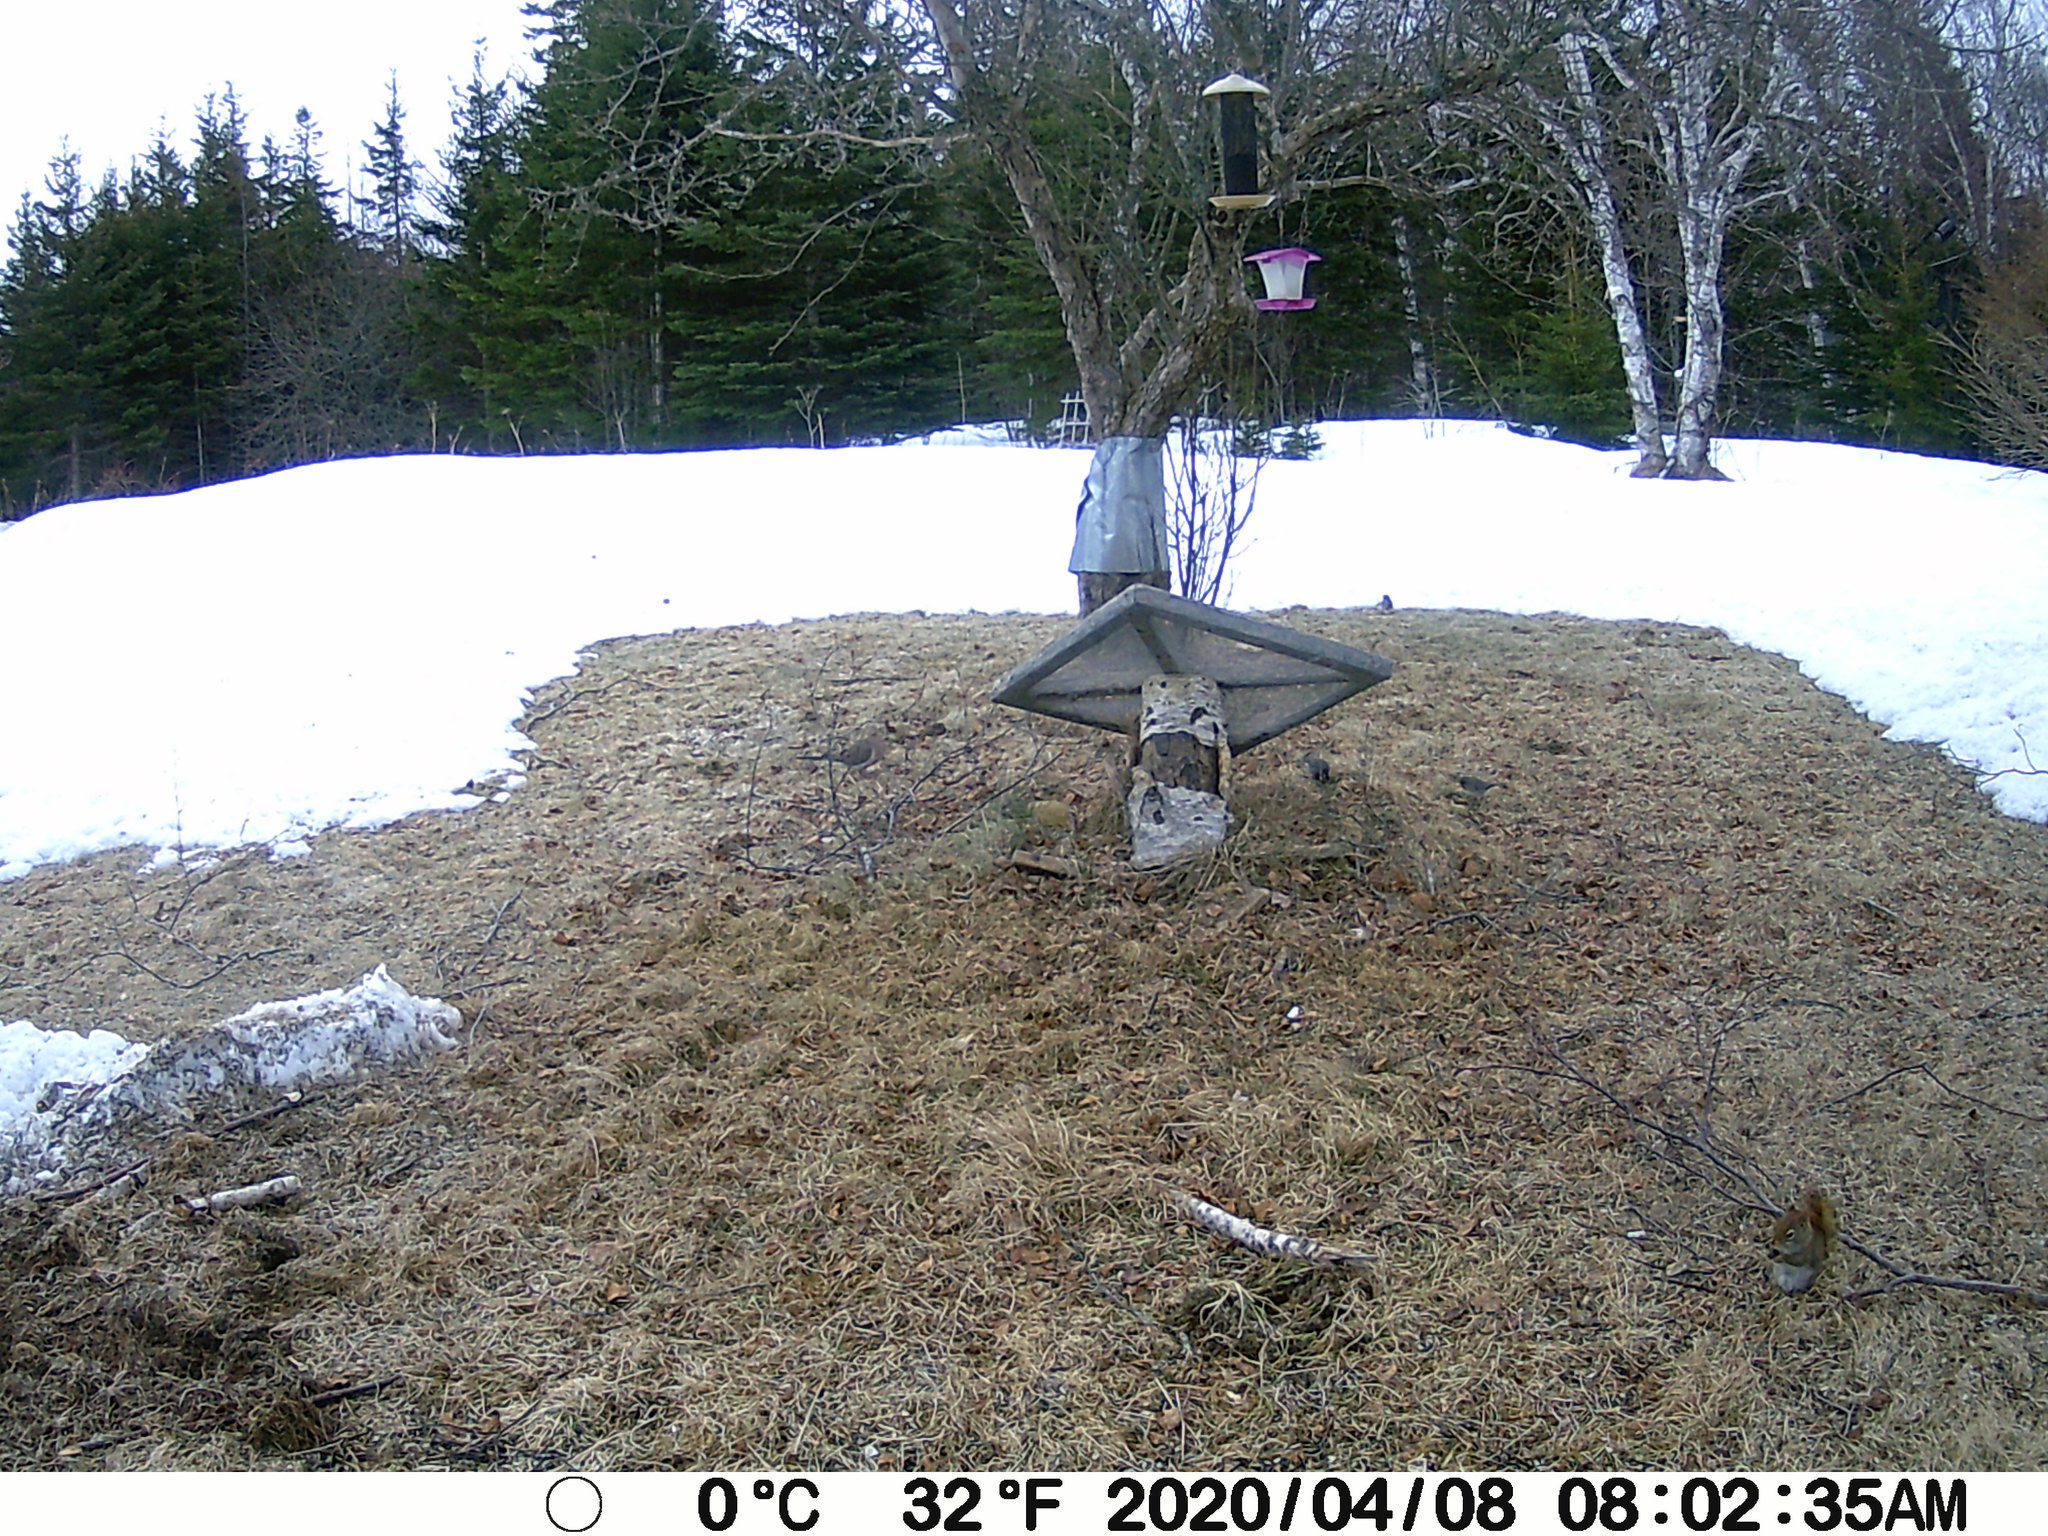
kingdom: Animalia
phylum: Chordata
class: Mammalia
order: Rodentia
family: Sciuridae
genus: Tamiasciurus
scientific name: Tamiasciurus hudsonicus
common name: Red squirrel
